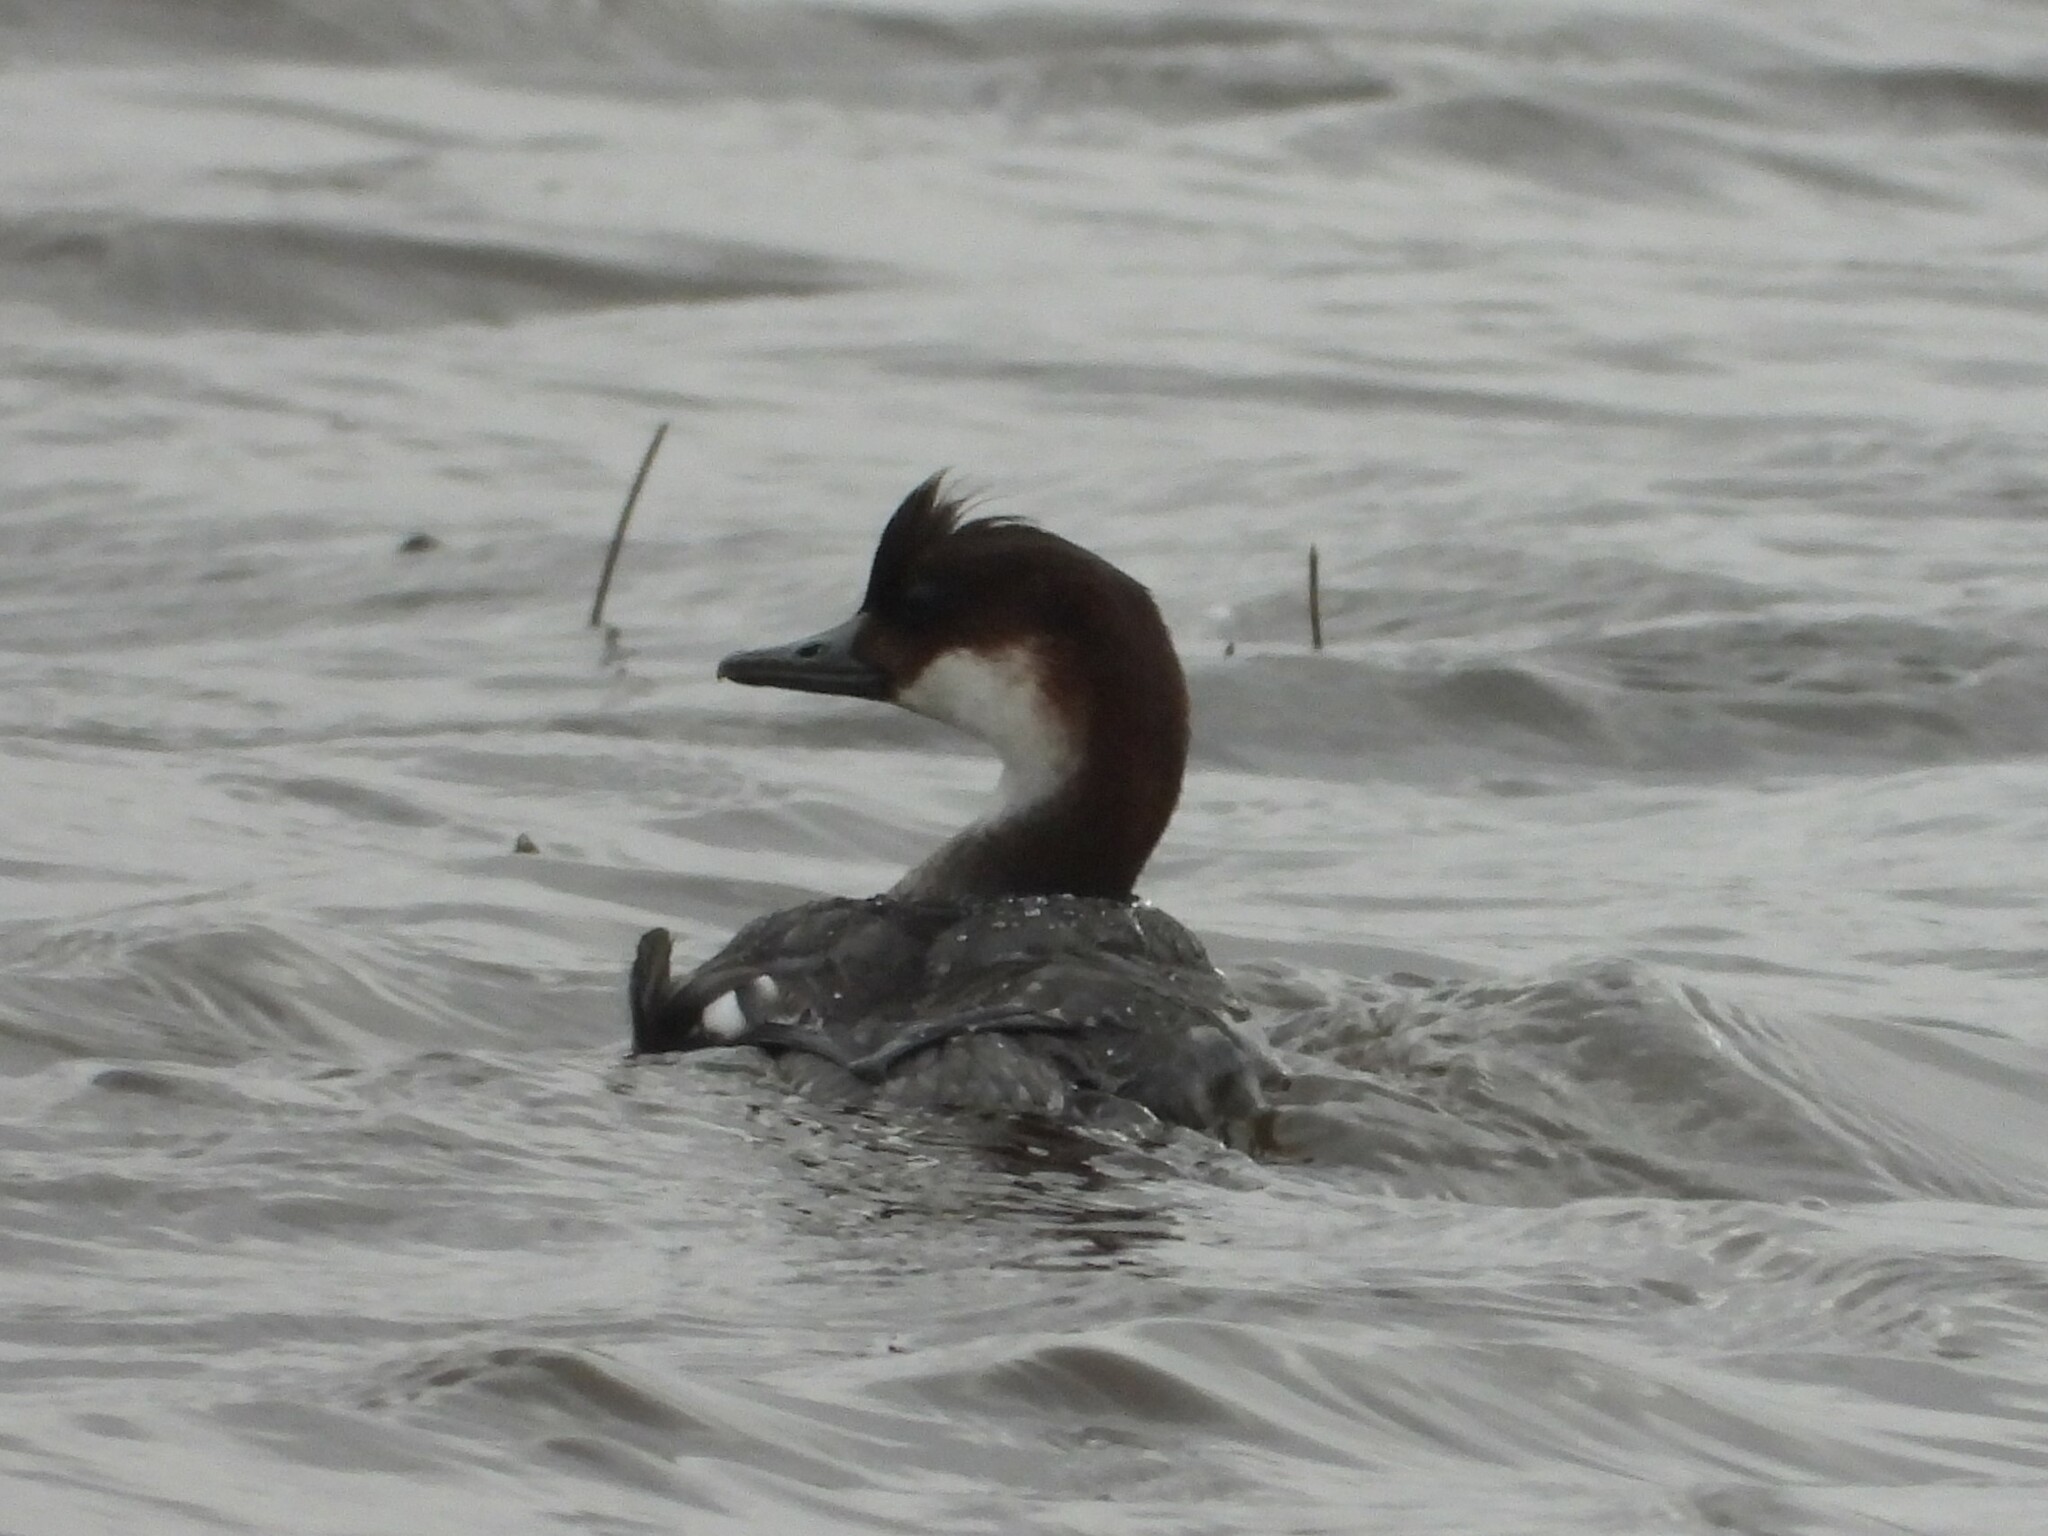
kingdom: Animalia
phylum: Chordata
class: Aves
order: Anseriformes
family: Anatidae
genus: Mergellus
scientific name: Mergellus albellus
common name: Smew
